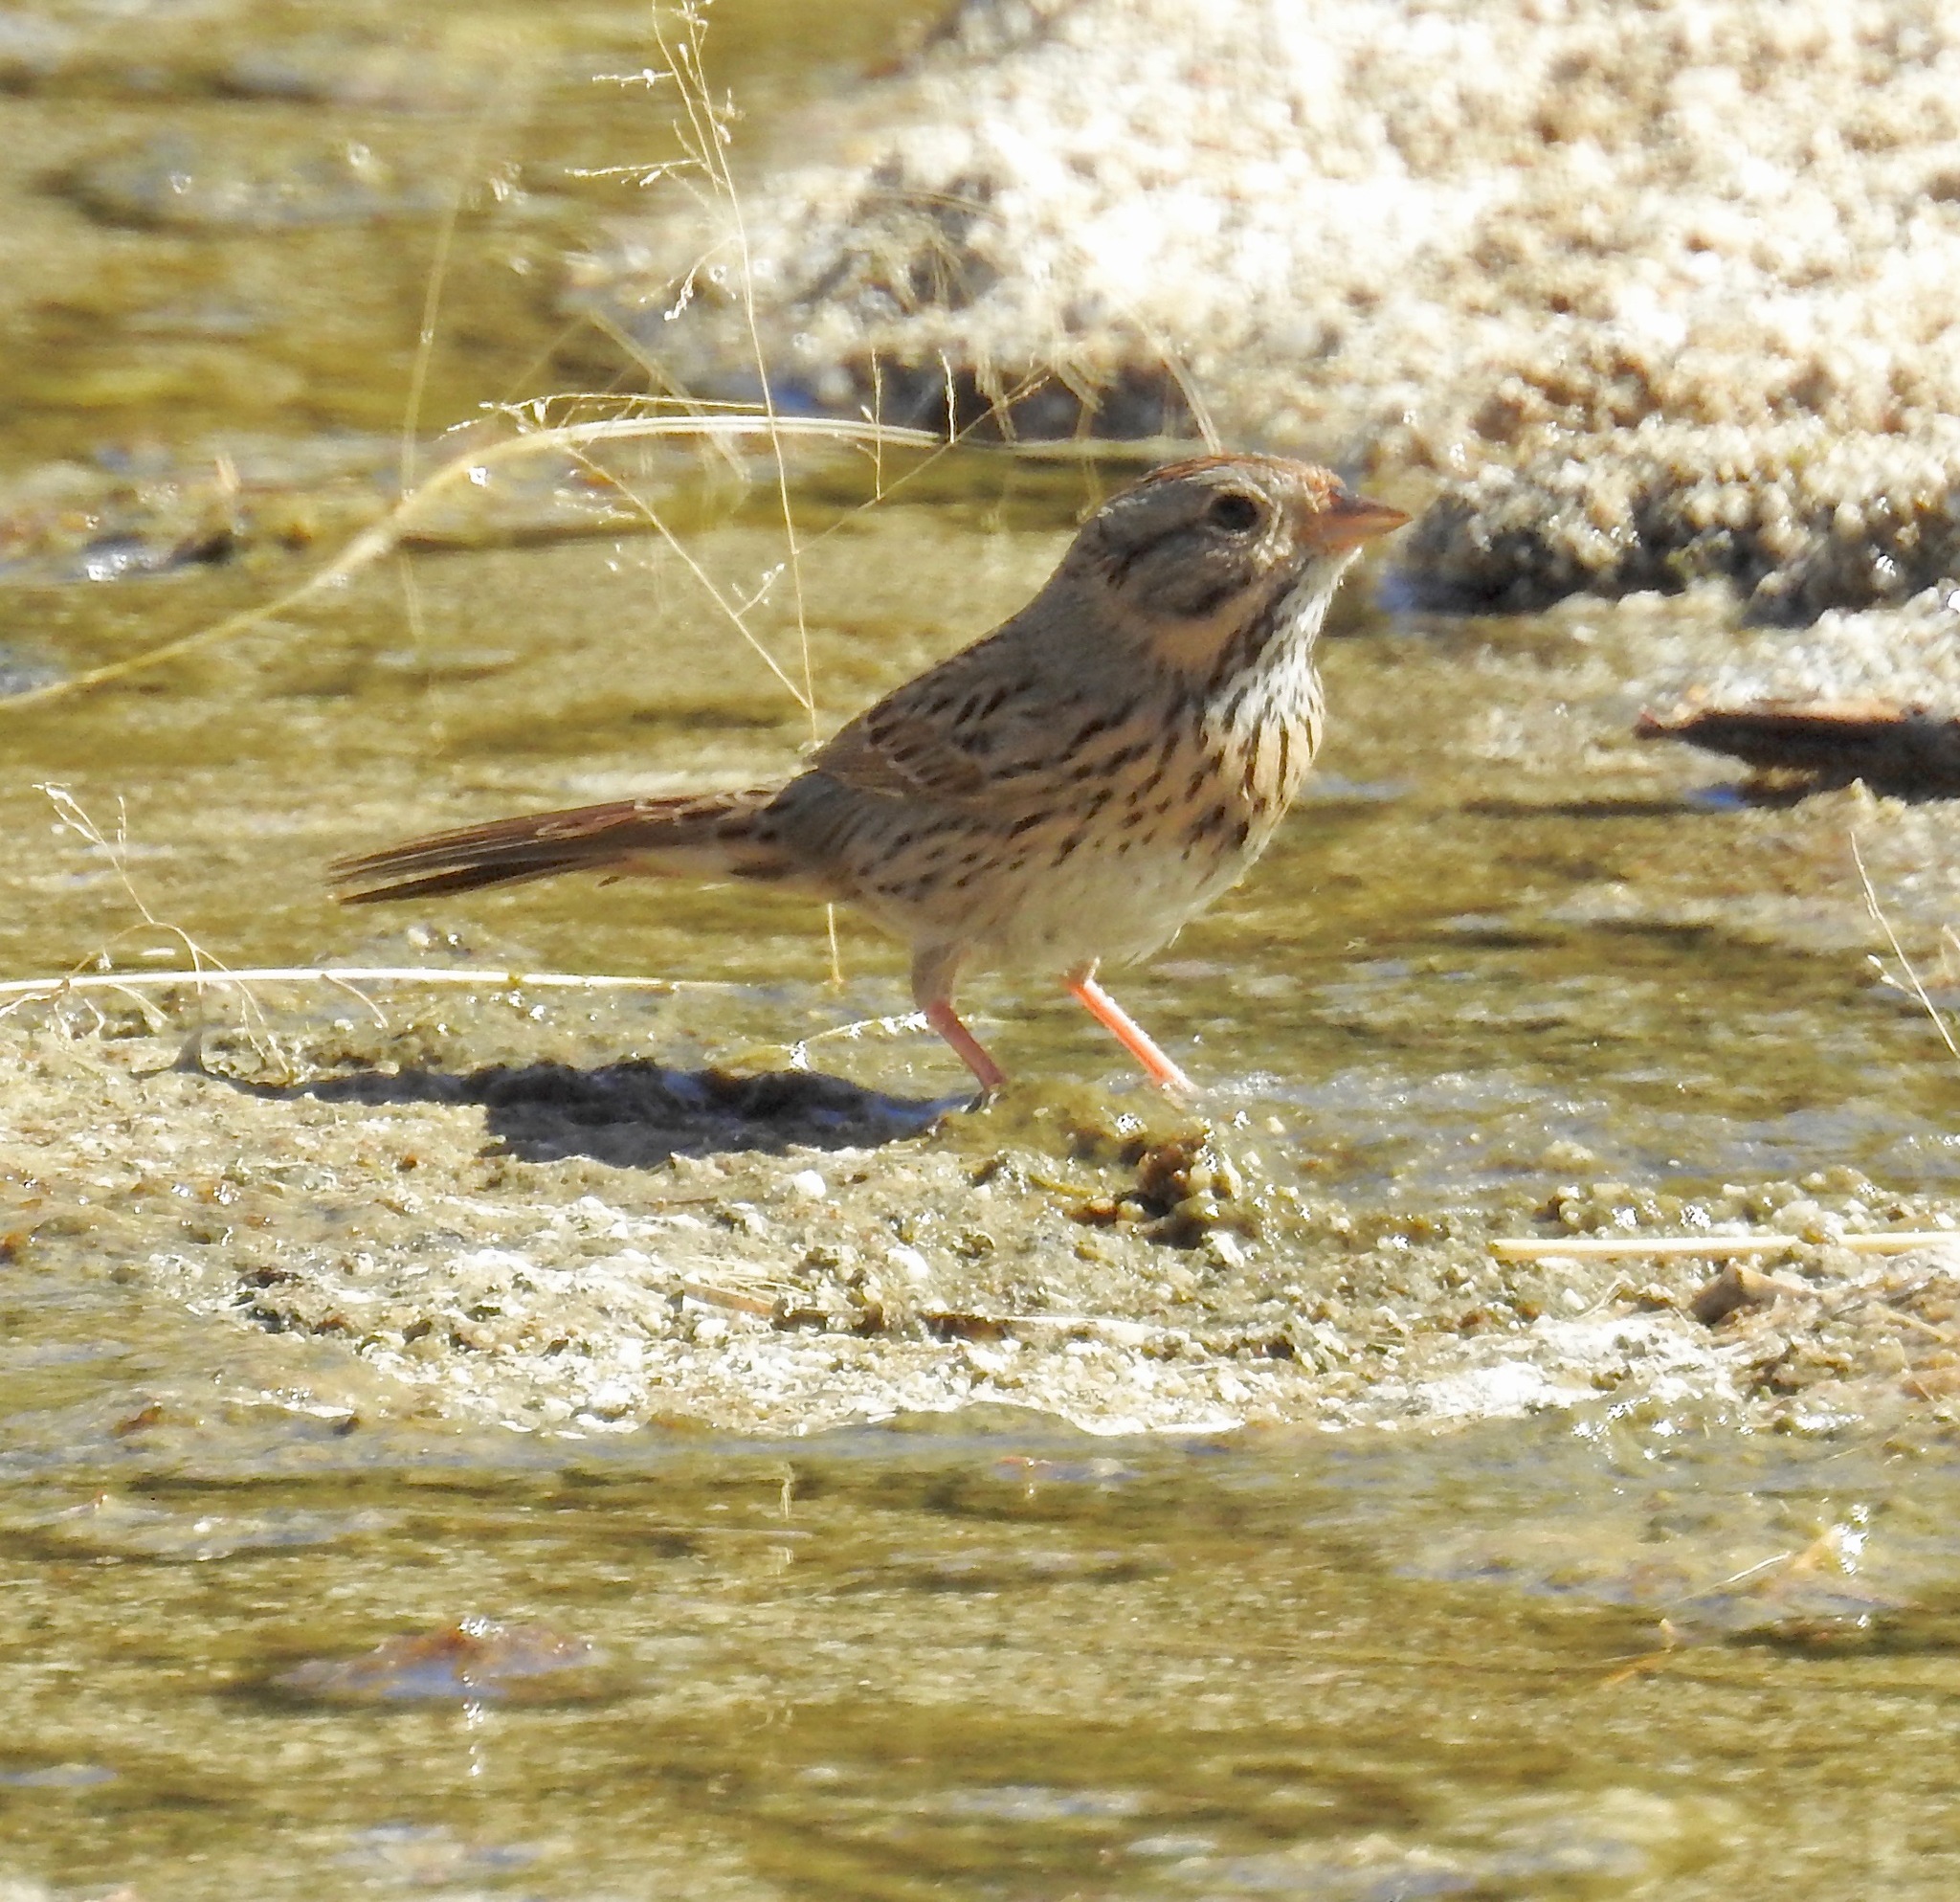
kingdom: Animalia
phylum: Chordata
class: Aves
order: Passeriformes
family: Passerellidae
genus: Melospiza
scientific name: Melospiza lincolnii
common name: Lincoln's sparrow
